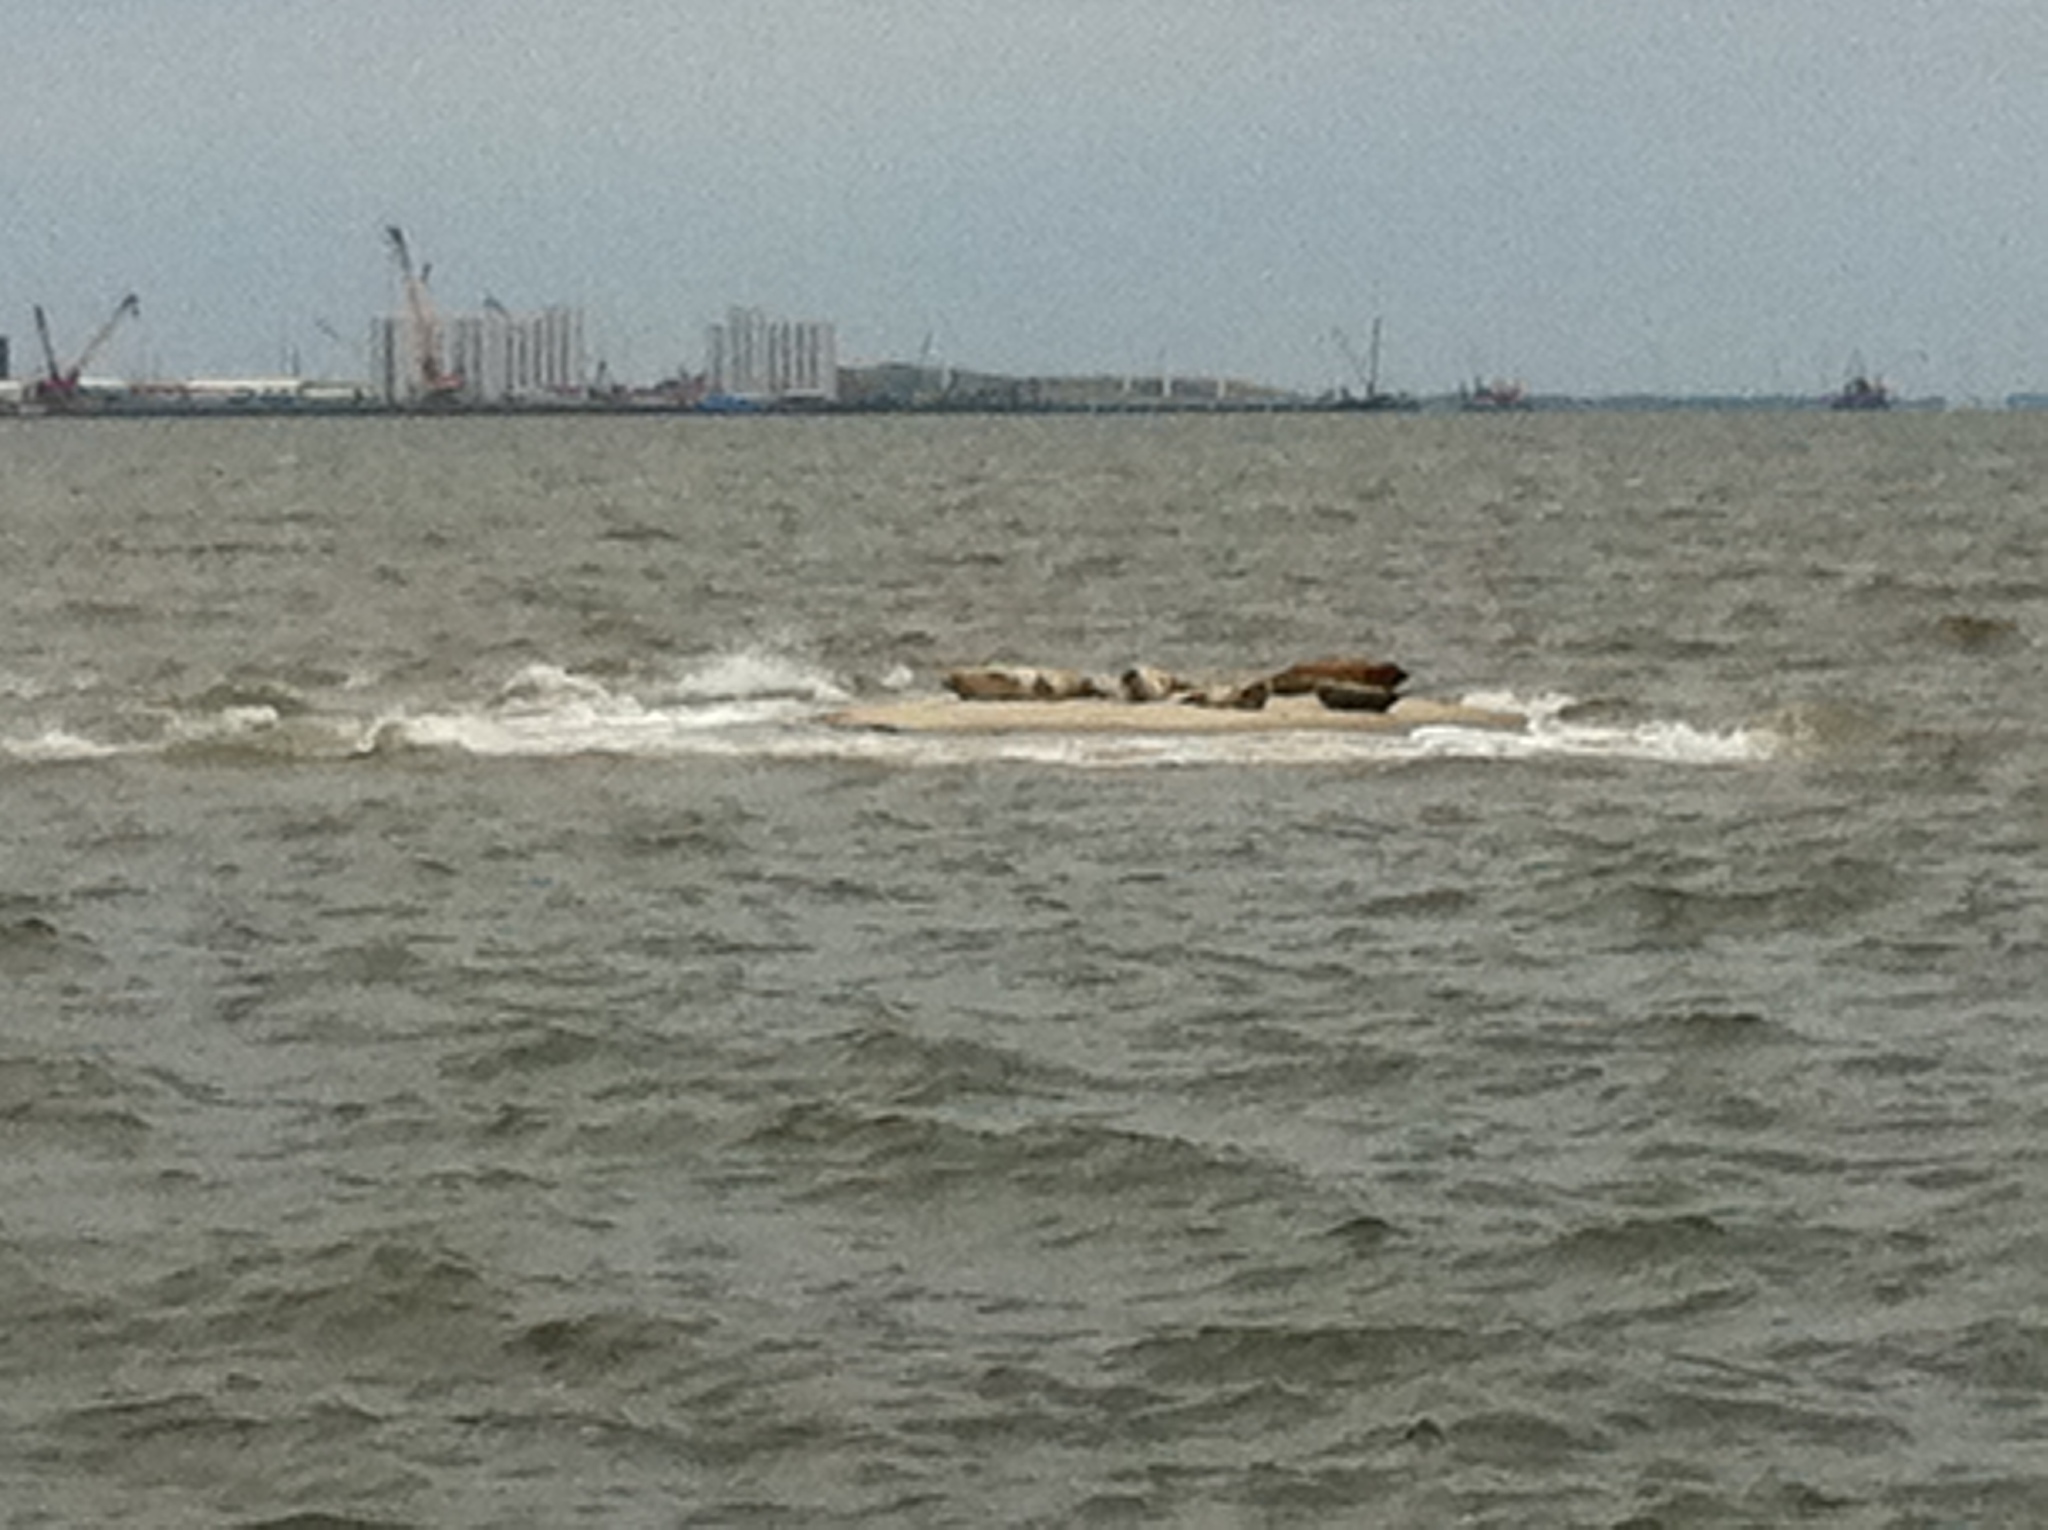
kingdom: Animalia
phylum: Chordata
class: Mammalia
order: Carnivora
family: Phocidae
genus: Phoca
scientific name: Phoca vitulina
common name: Harbor seal
